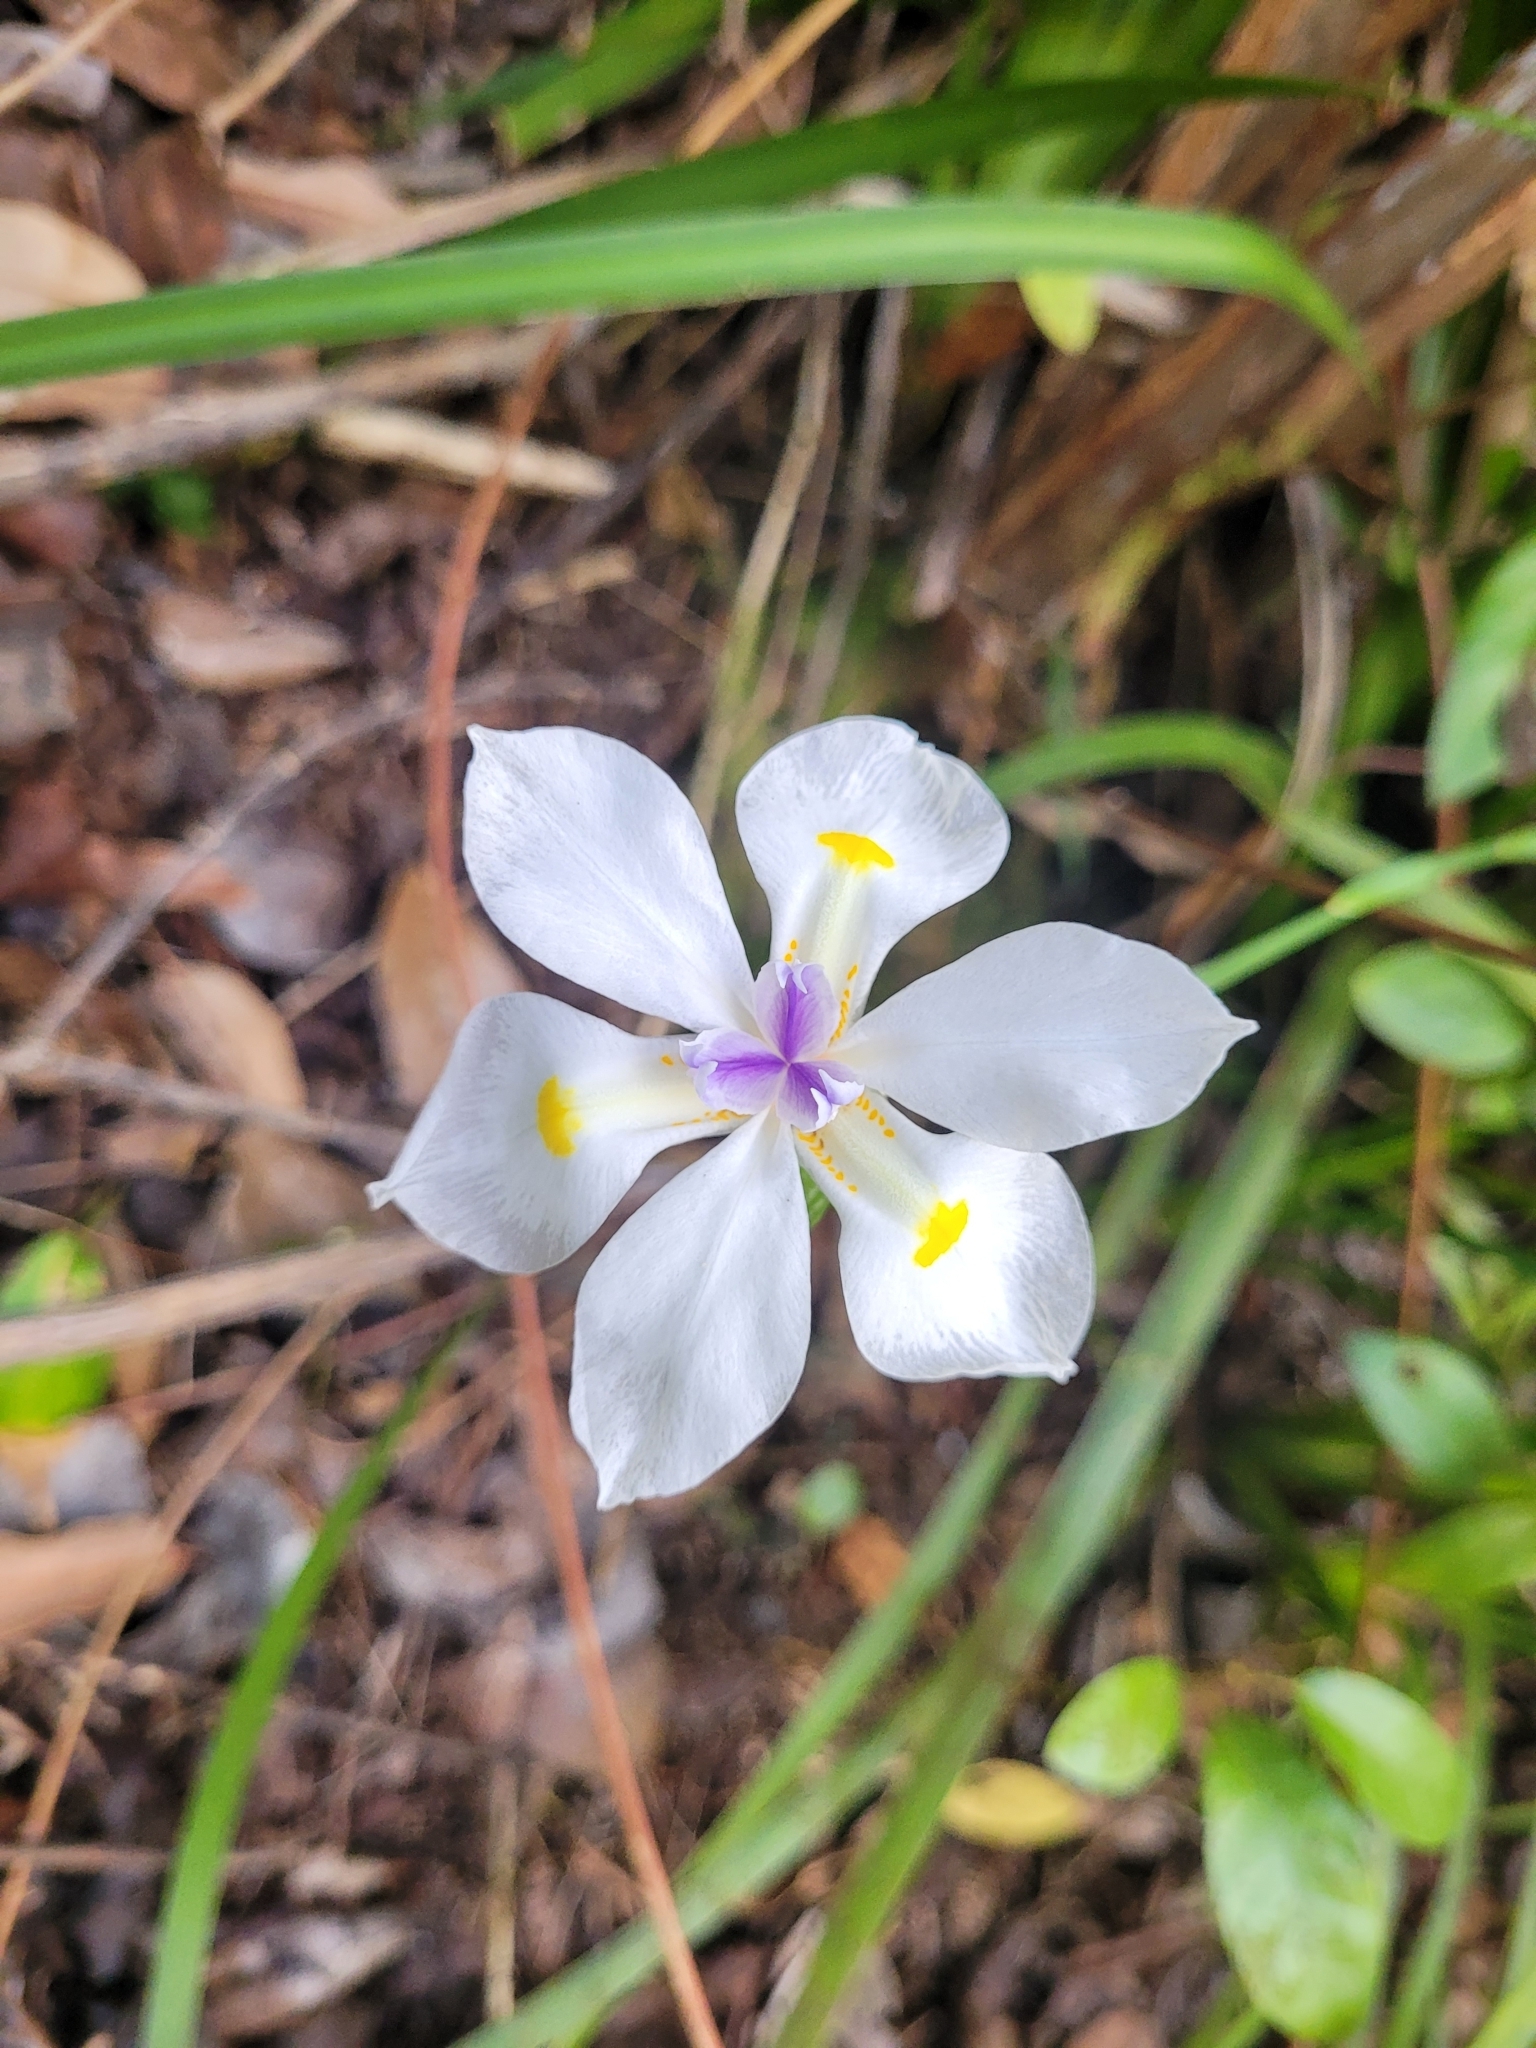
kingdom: Plantae
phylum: Tracheophyta
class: Liliopsida
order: Asparagales
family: Iridaceae
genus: Dietes
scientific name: Dietes iridioides
